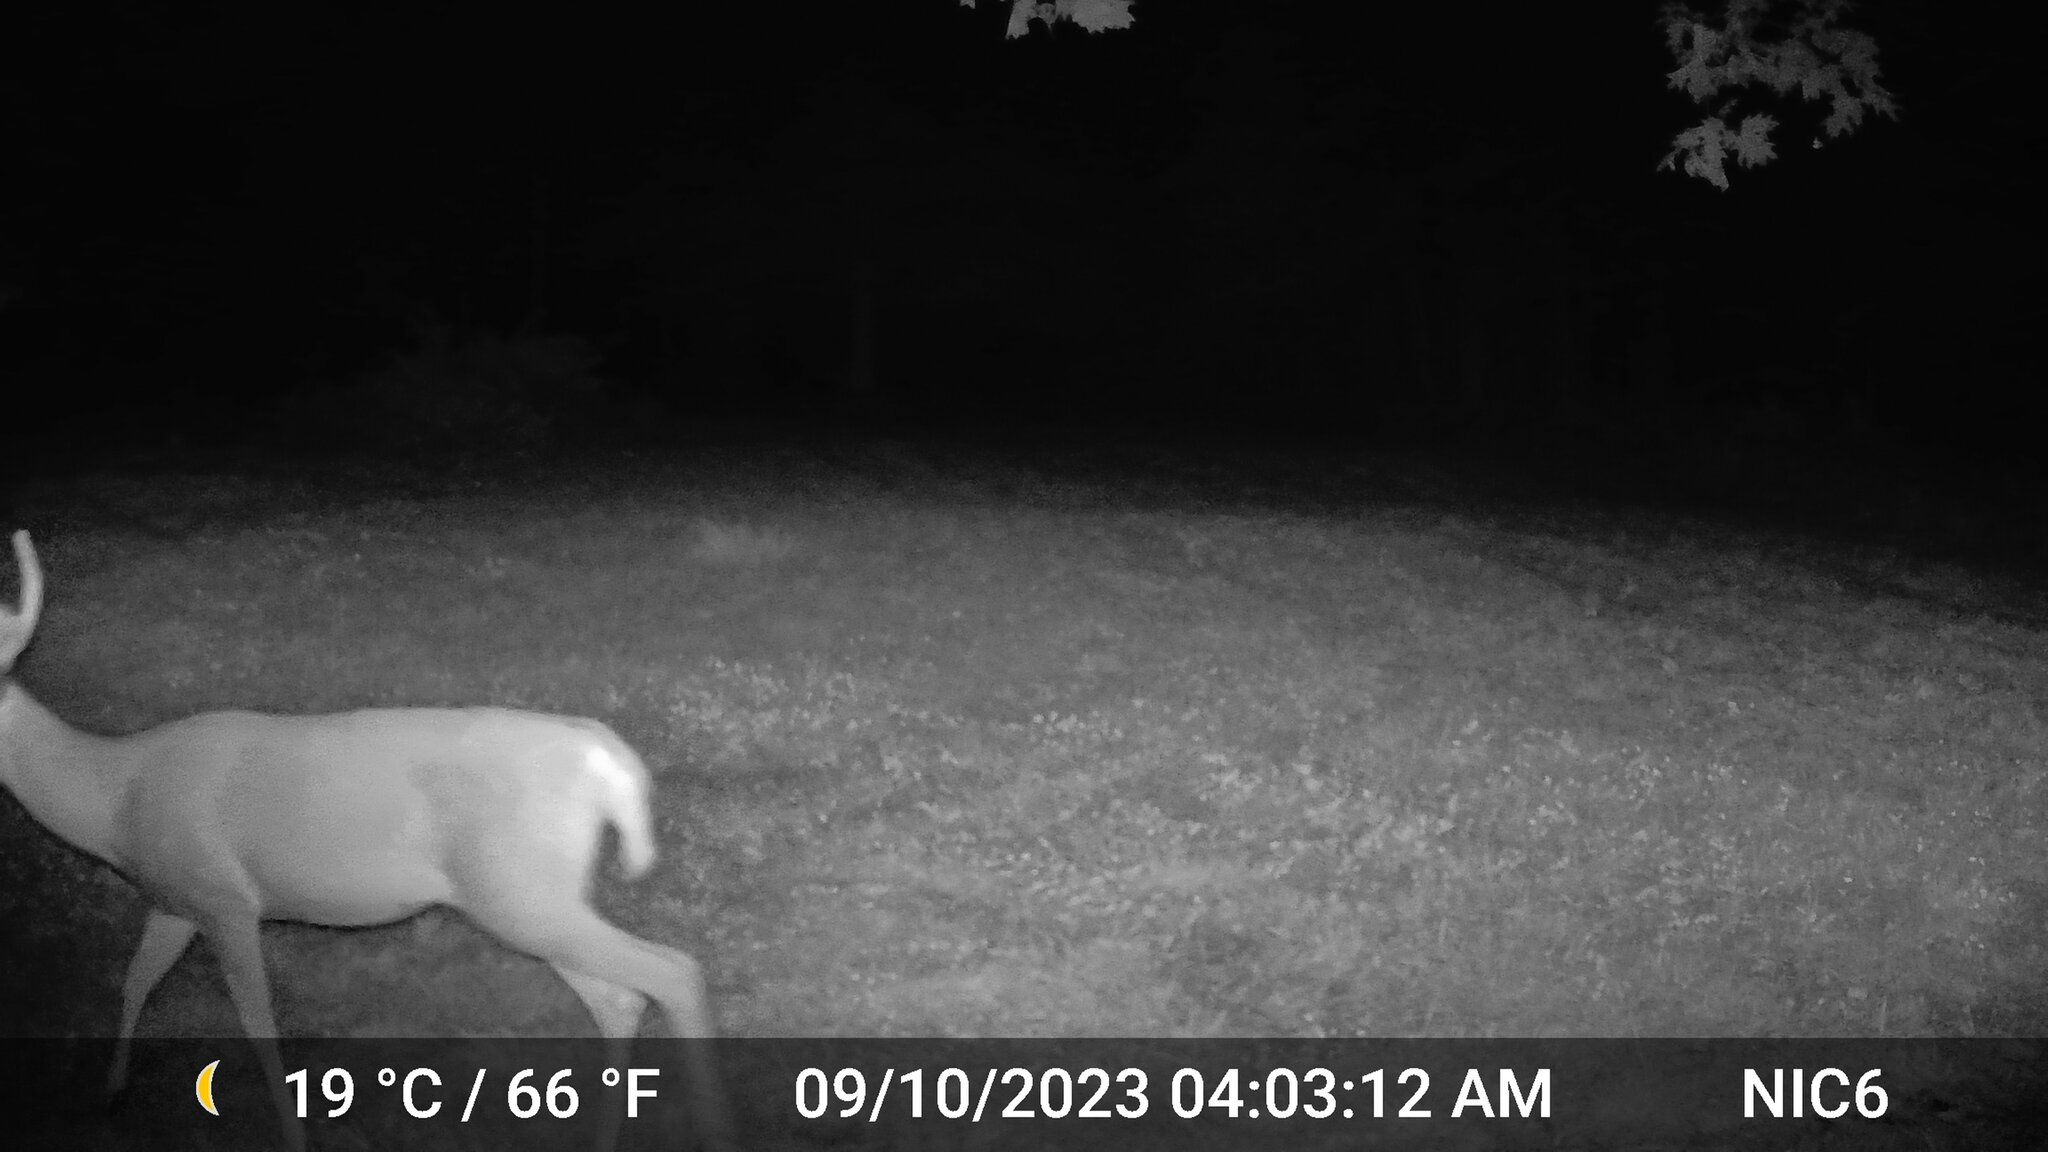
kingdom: Animalia
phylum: Chordata
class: Mammalia
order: Artiodactyla
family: Cervidae
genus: Odocoileus
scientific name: Odocoileus virginianus
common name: White-tailed deer
